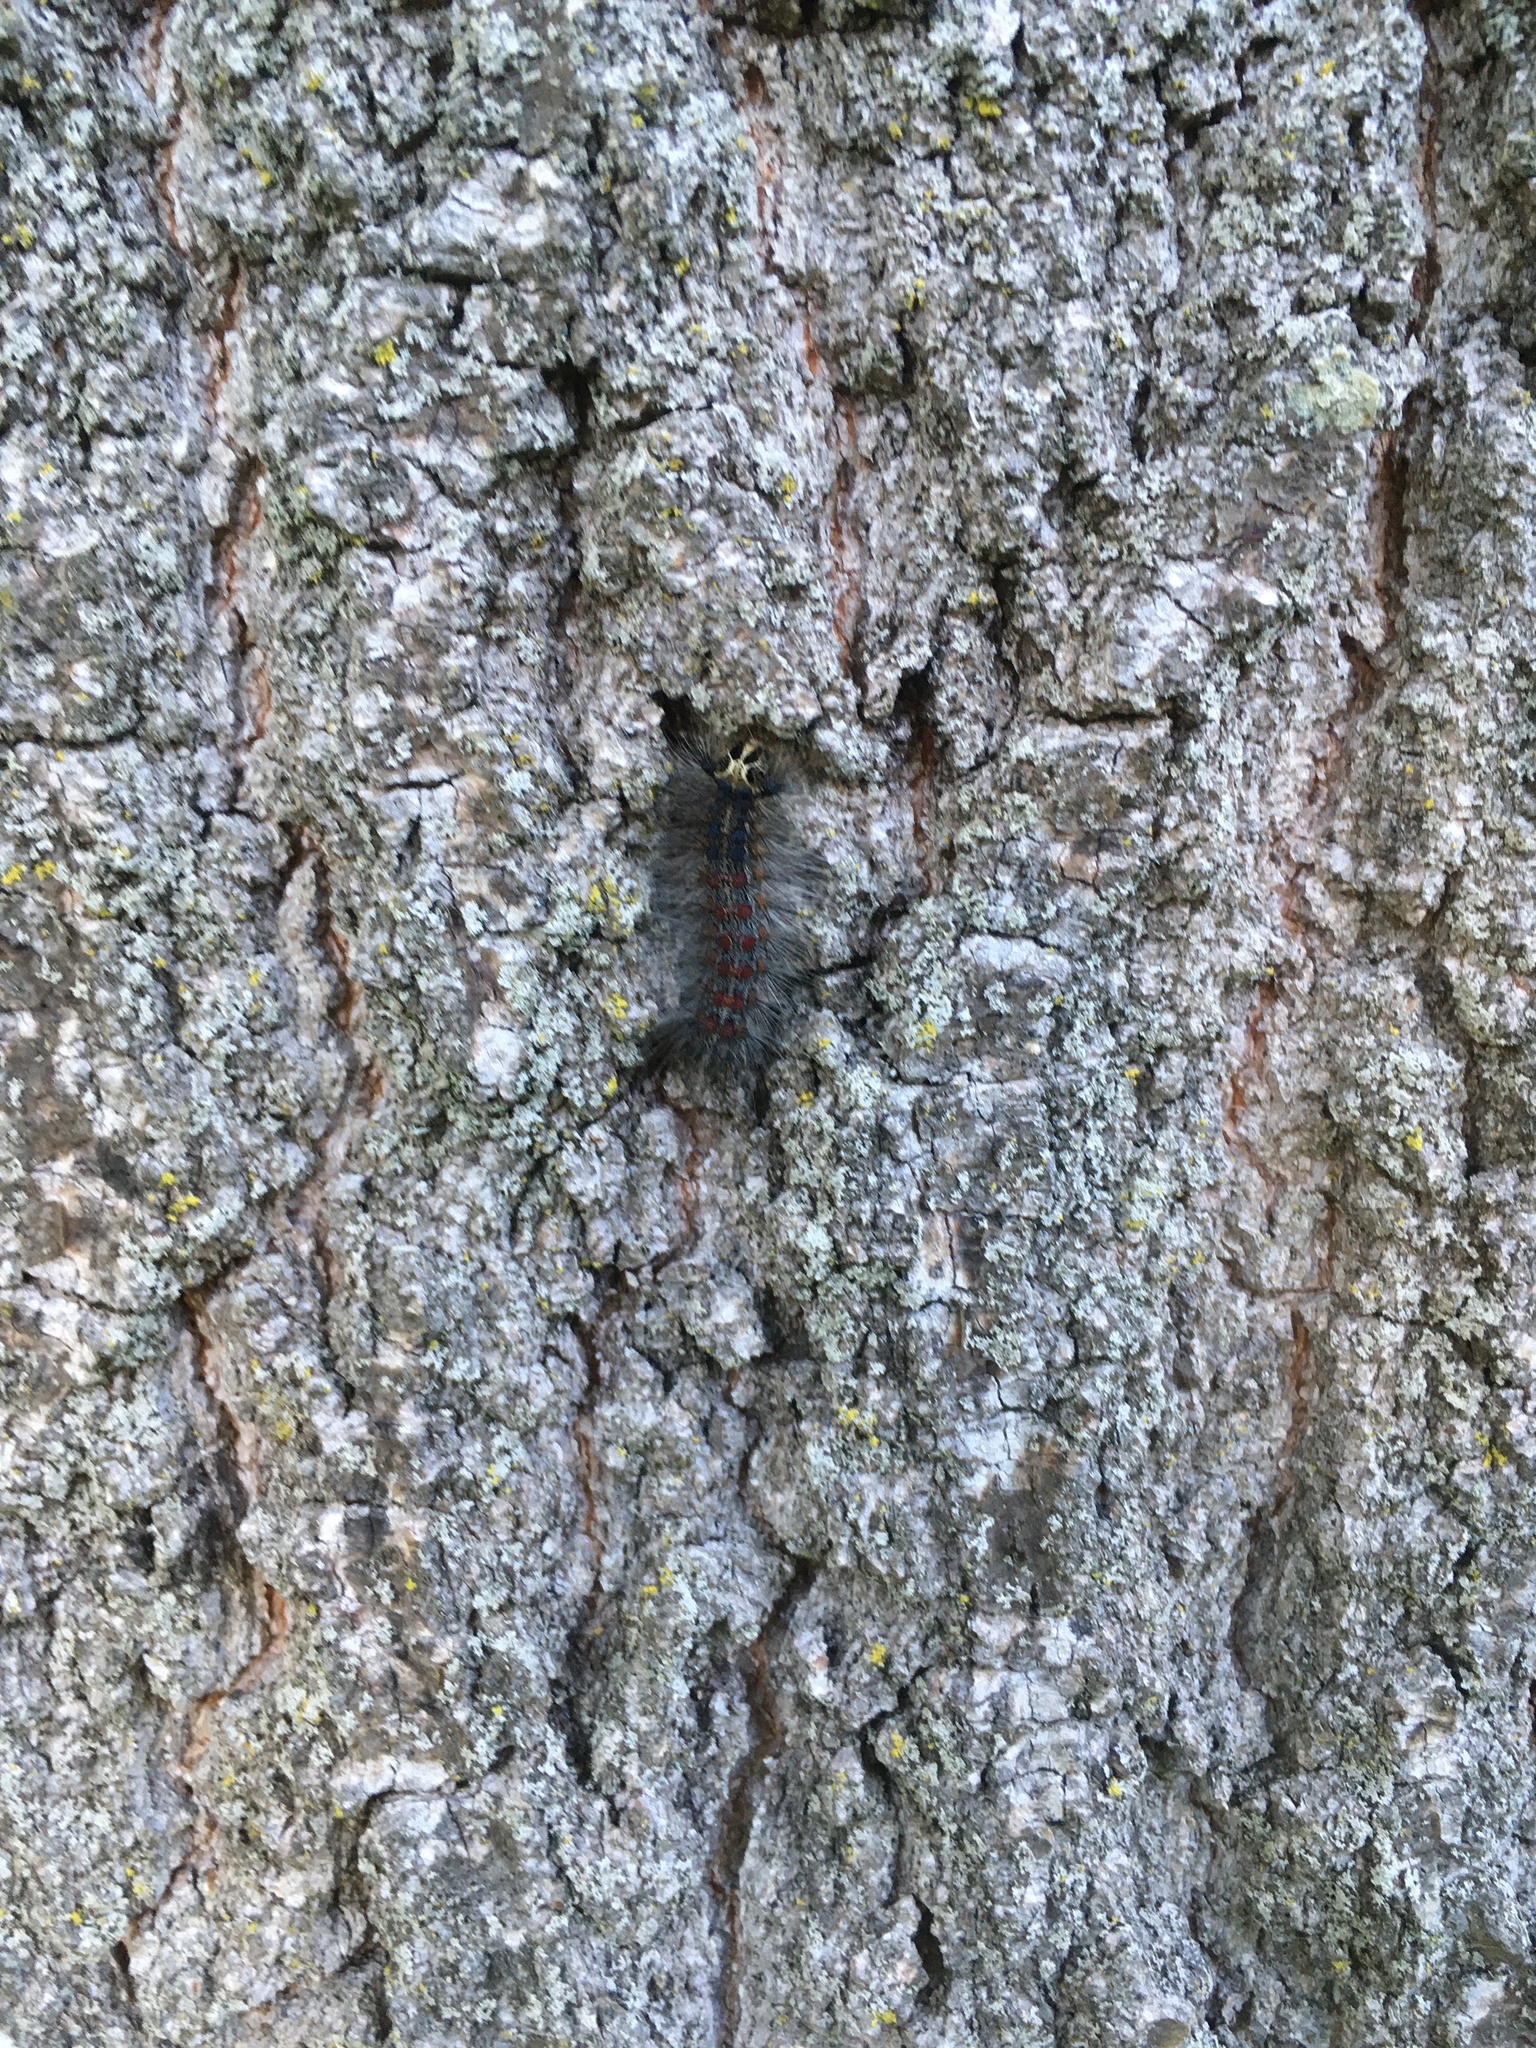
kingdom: Animalia
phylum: Arthropoda
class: Insecta
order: Lepidoptera
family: Erebidae
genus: Lymantria
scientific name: Lymantria dispar
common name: Gypsy moth
